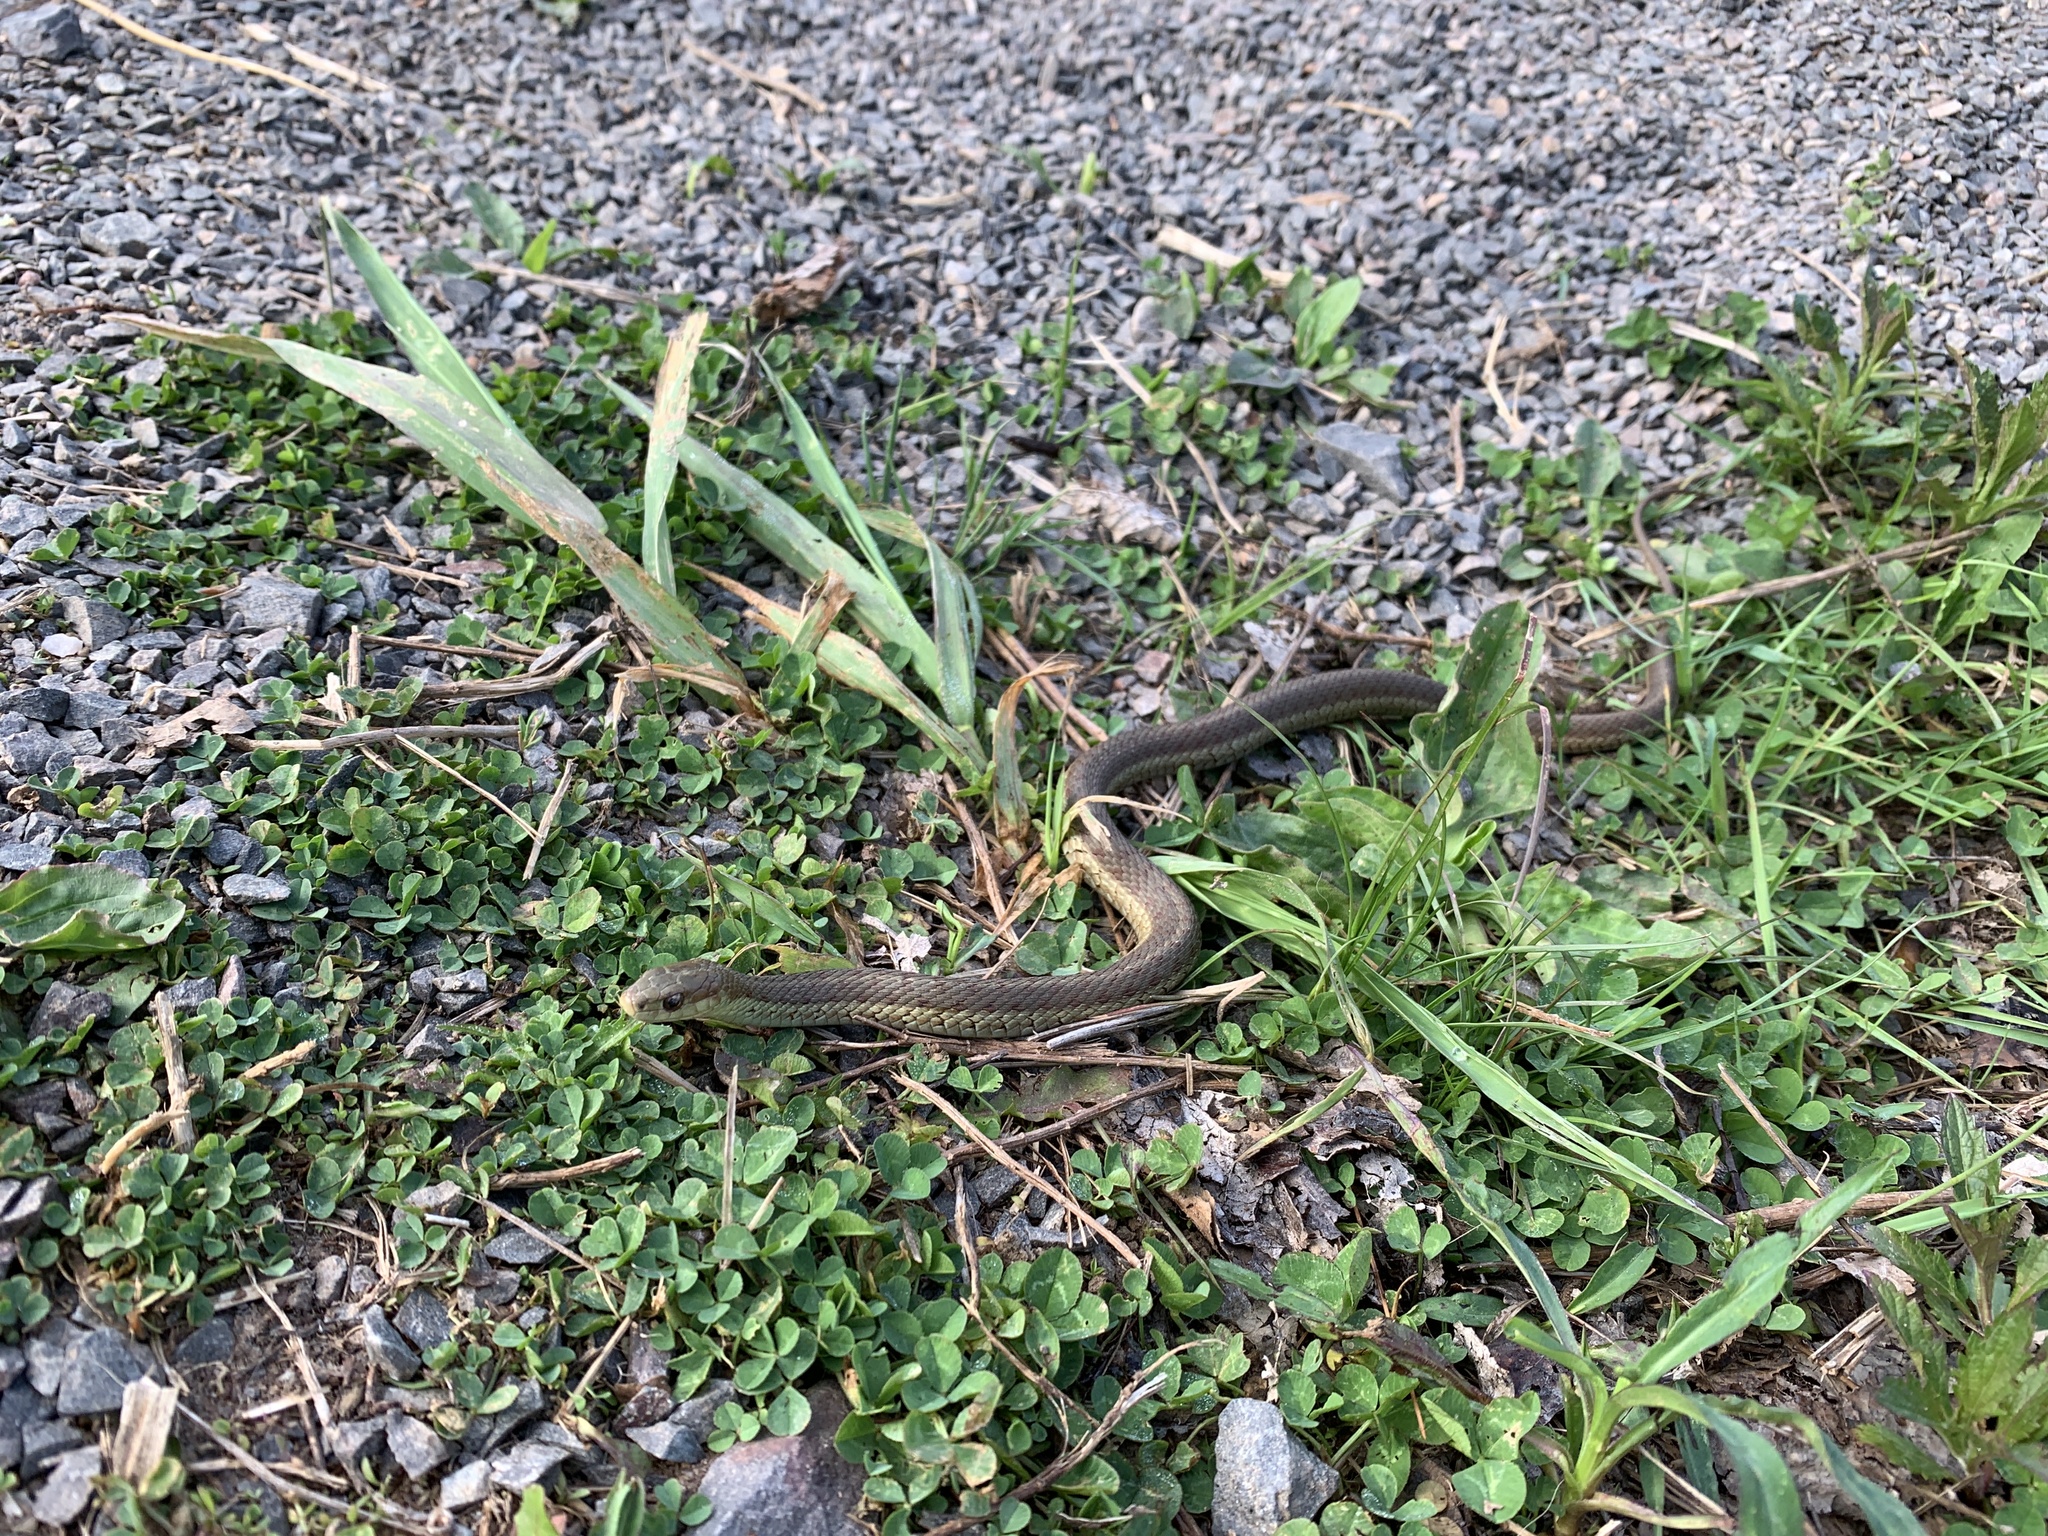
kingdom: Animalia
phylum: Chordata
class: Squamata
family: Colubridae
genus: Thamnophis
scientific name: Thamnophis sirtalis
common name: Common garter snake
